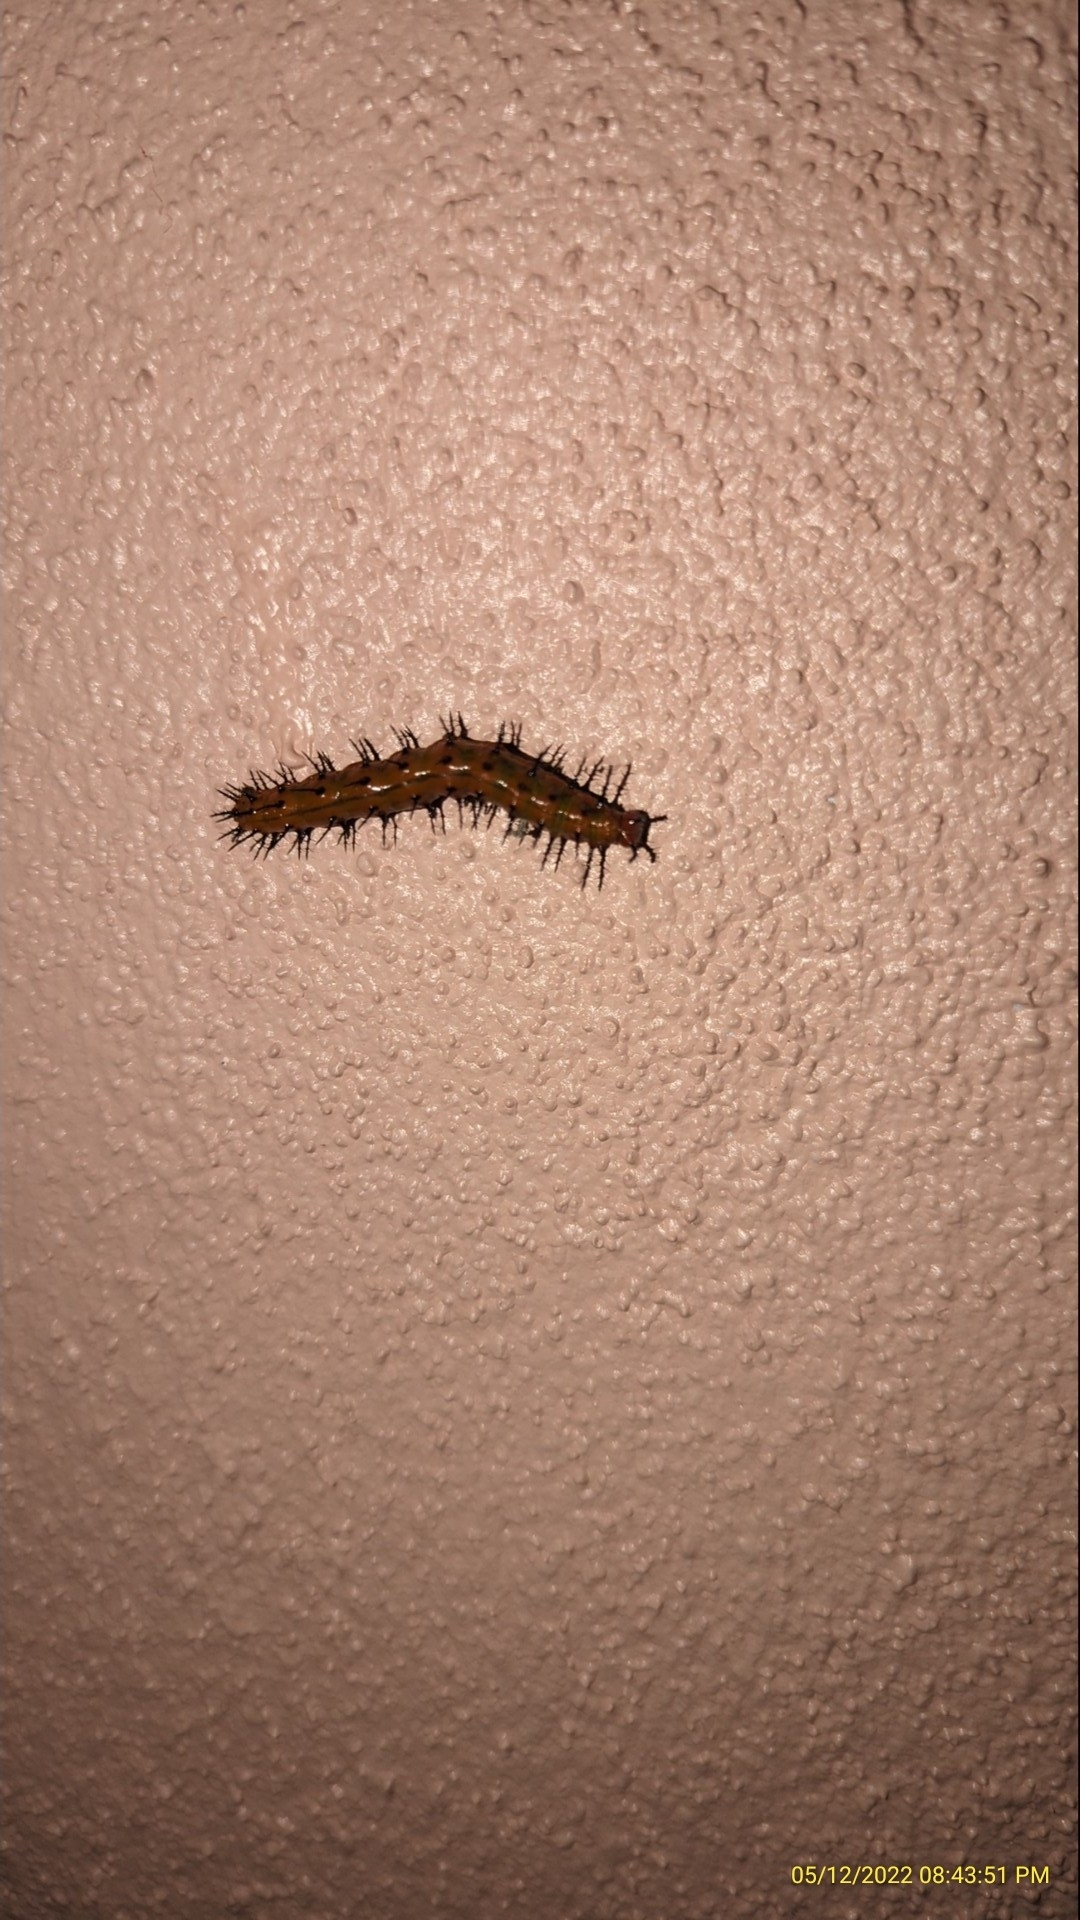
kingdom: Animalia
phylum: Arthropoda
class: Insecta
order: Lepidoptera
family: Nymphalidae
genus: Dione
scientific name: Dione vanillae
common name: Gulf fritillary
